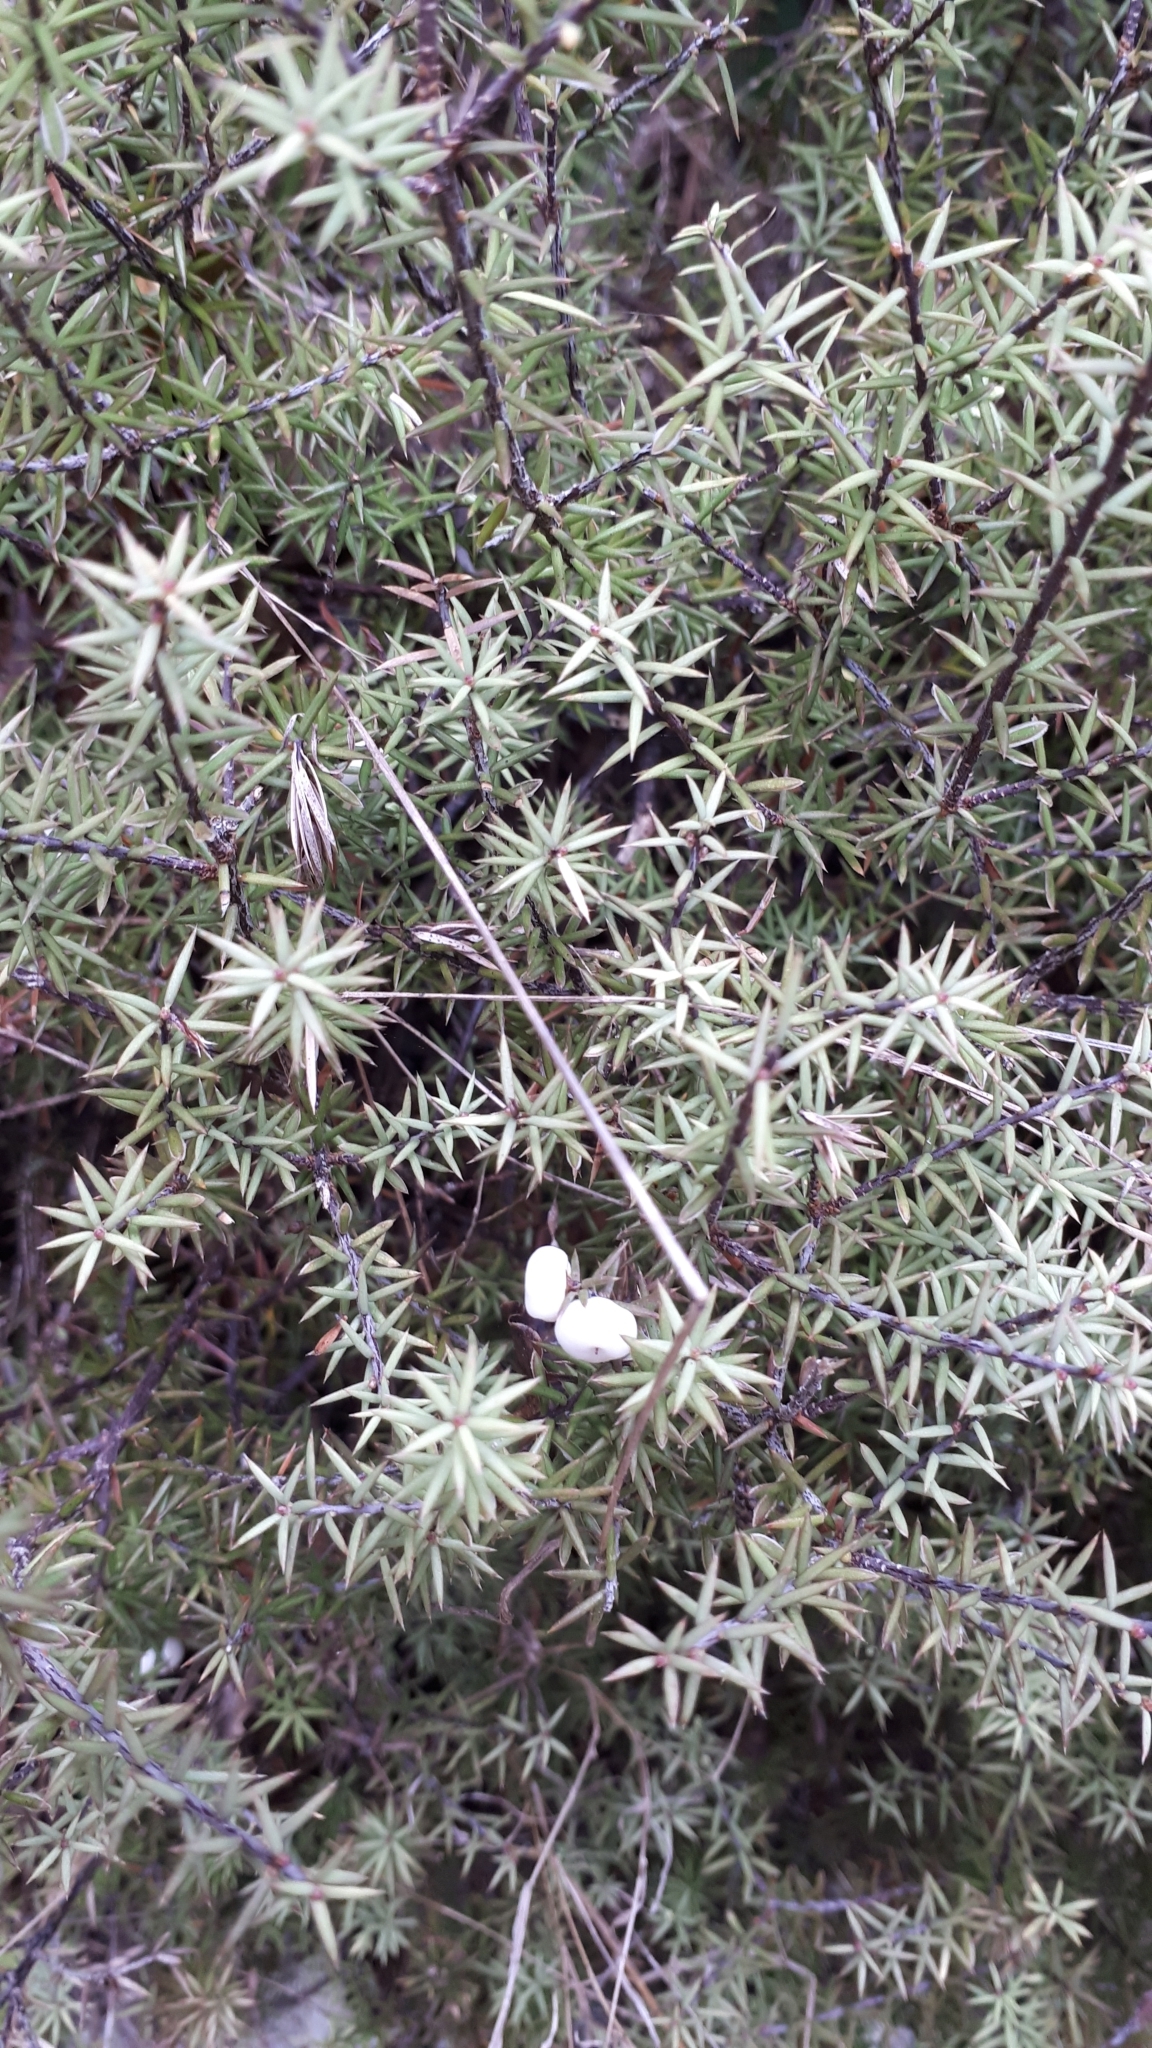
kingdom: Plantae
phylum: Tracheophyta
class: Magnoliopsida
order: Ericales
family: Ericaceae
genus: Leptecophylla
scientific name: Leptecophylla juniperina
